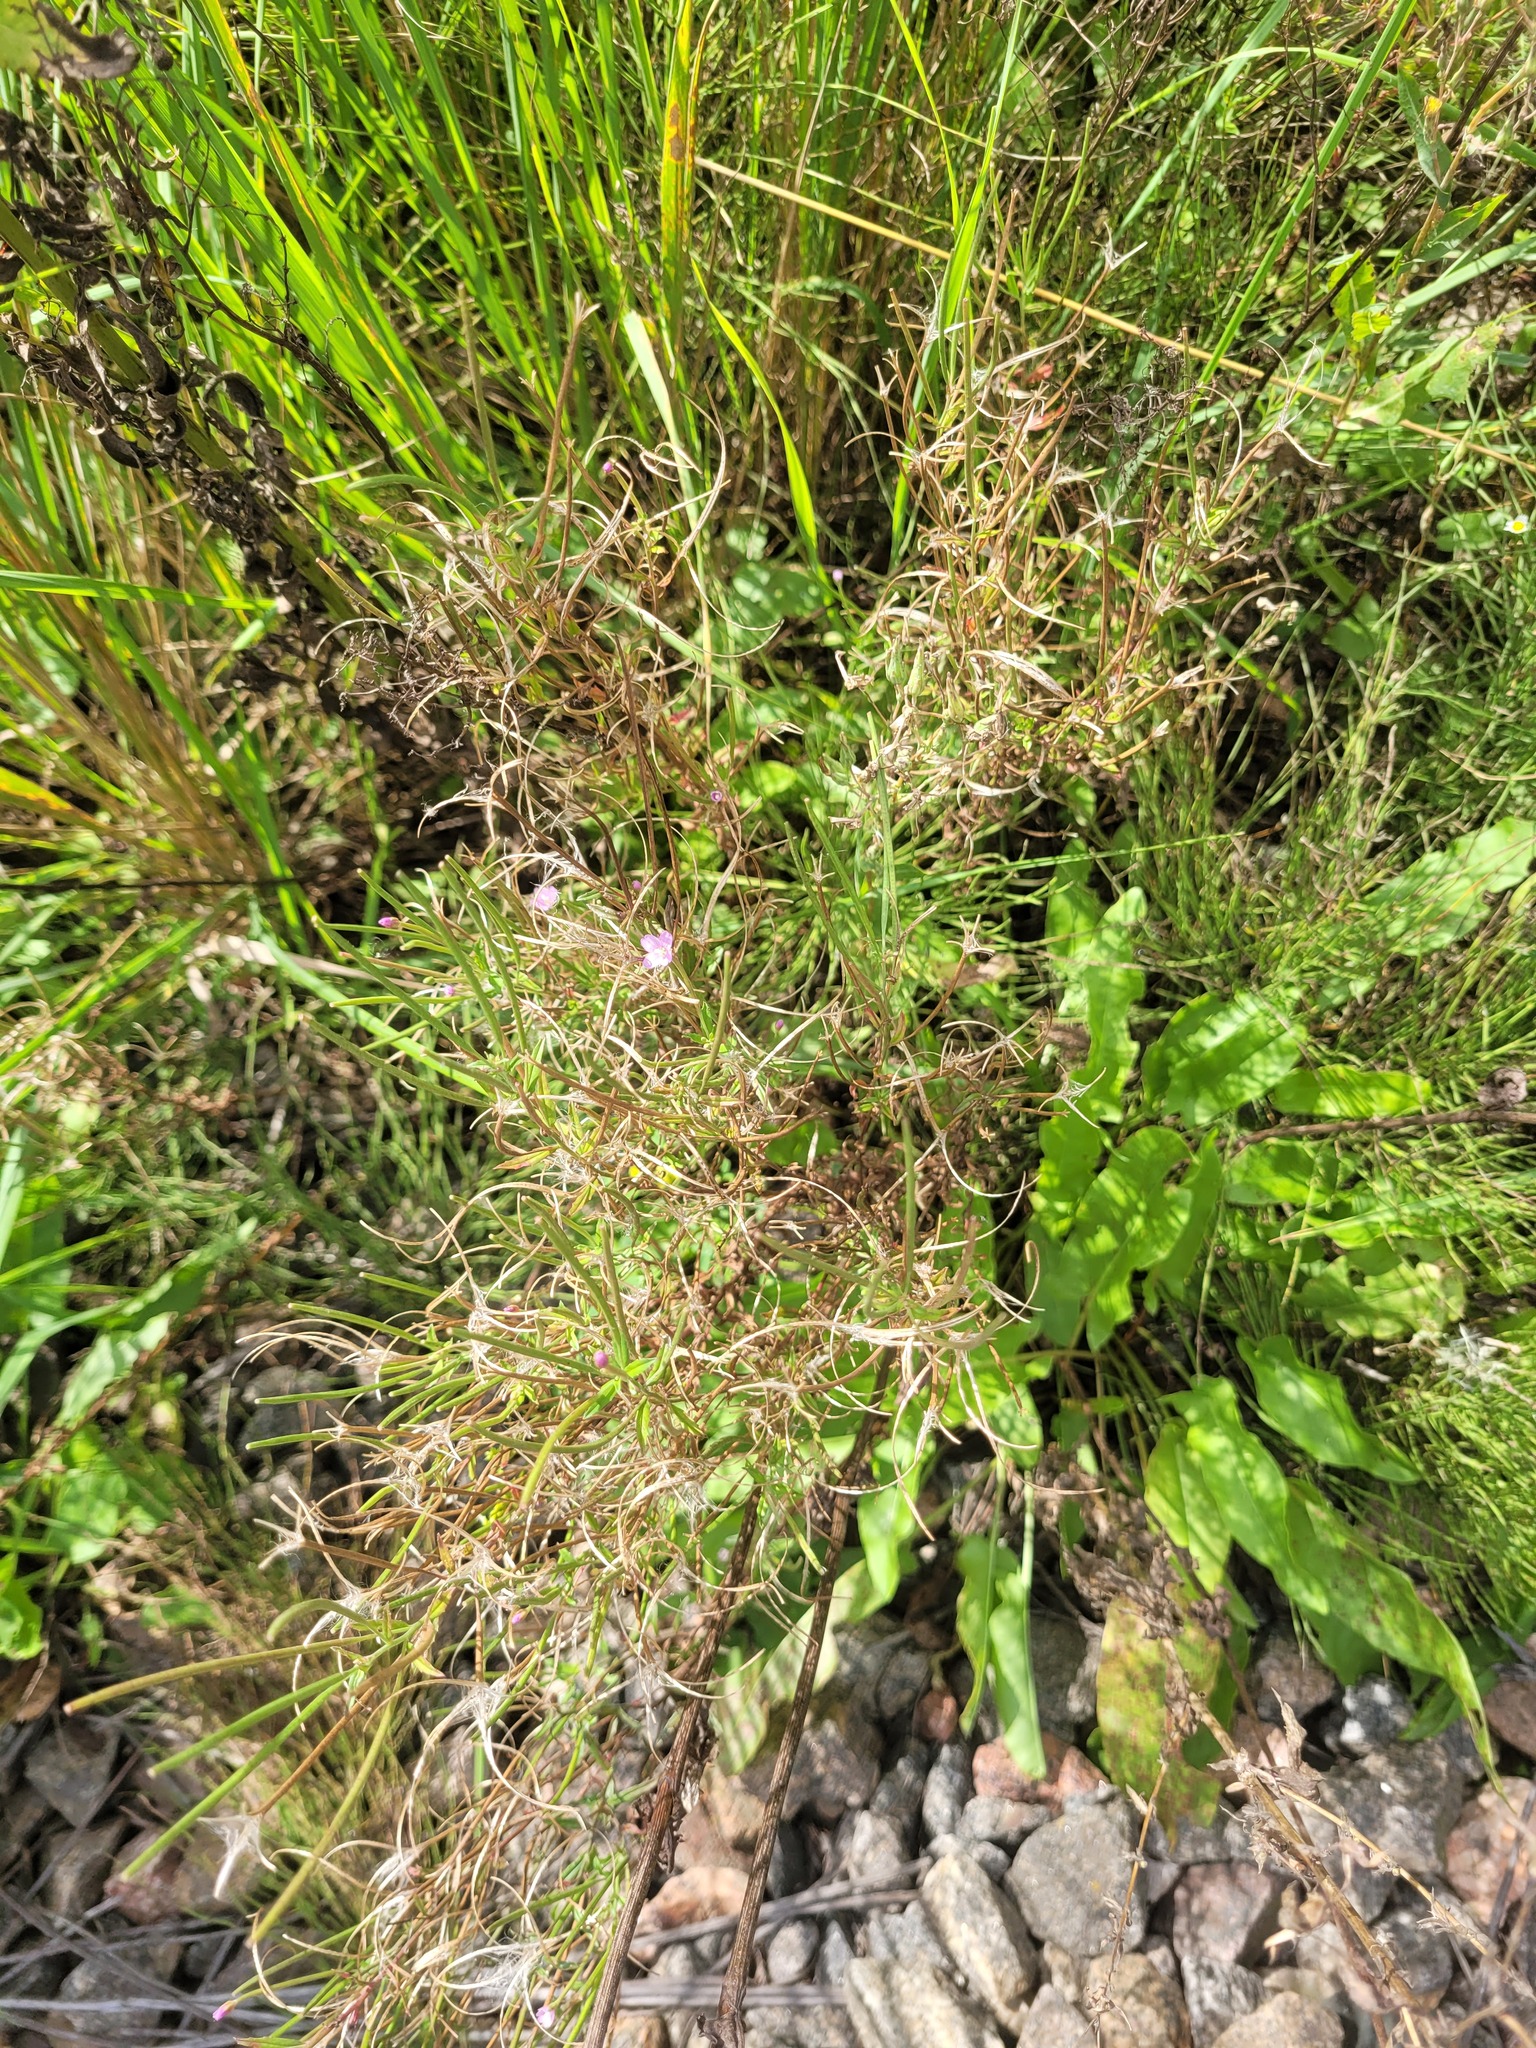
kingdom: Plantae
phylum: Tracheophyta
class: Magnoliopsida
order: Myrtales
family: Onagraceae
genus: Epilobium
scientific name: Epilobium lamyi
